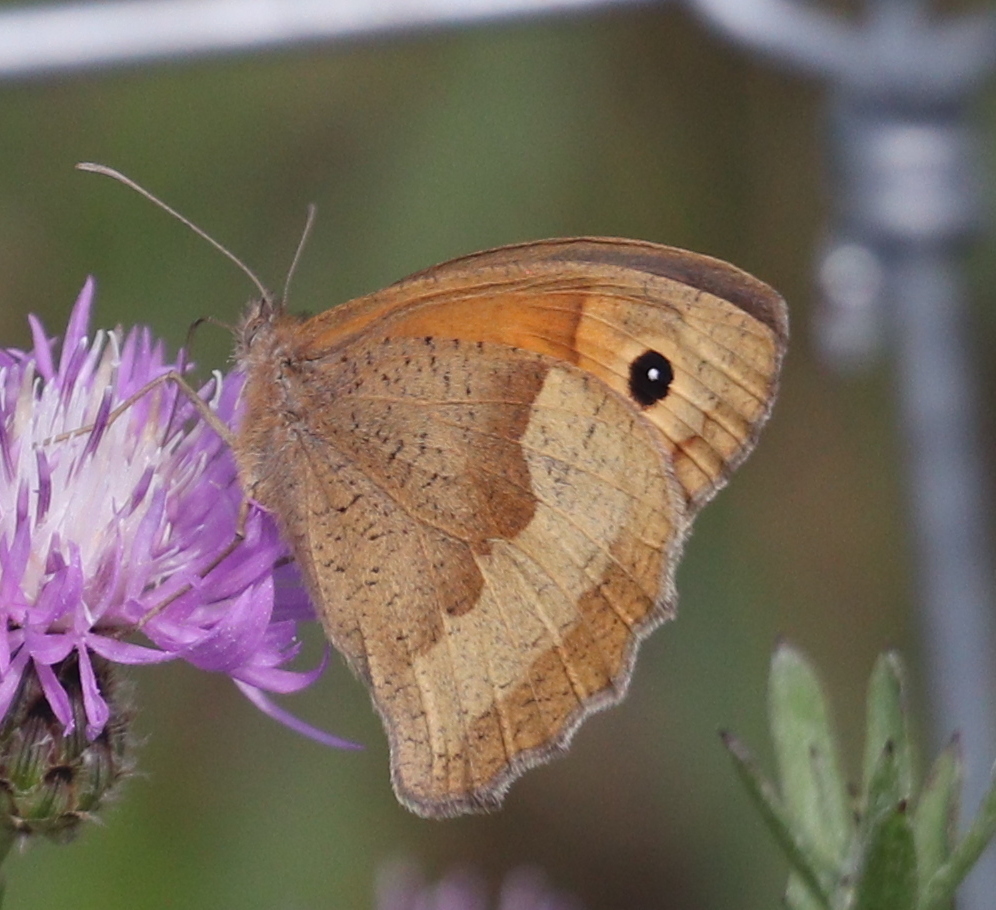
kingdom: Animalia
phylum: Arthropoda
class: Insecta
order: Lepidoptera
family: Nymphalidae
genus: Maniola
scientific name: Maniola jurtina
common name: Meadow brown
